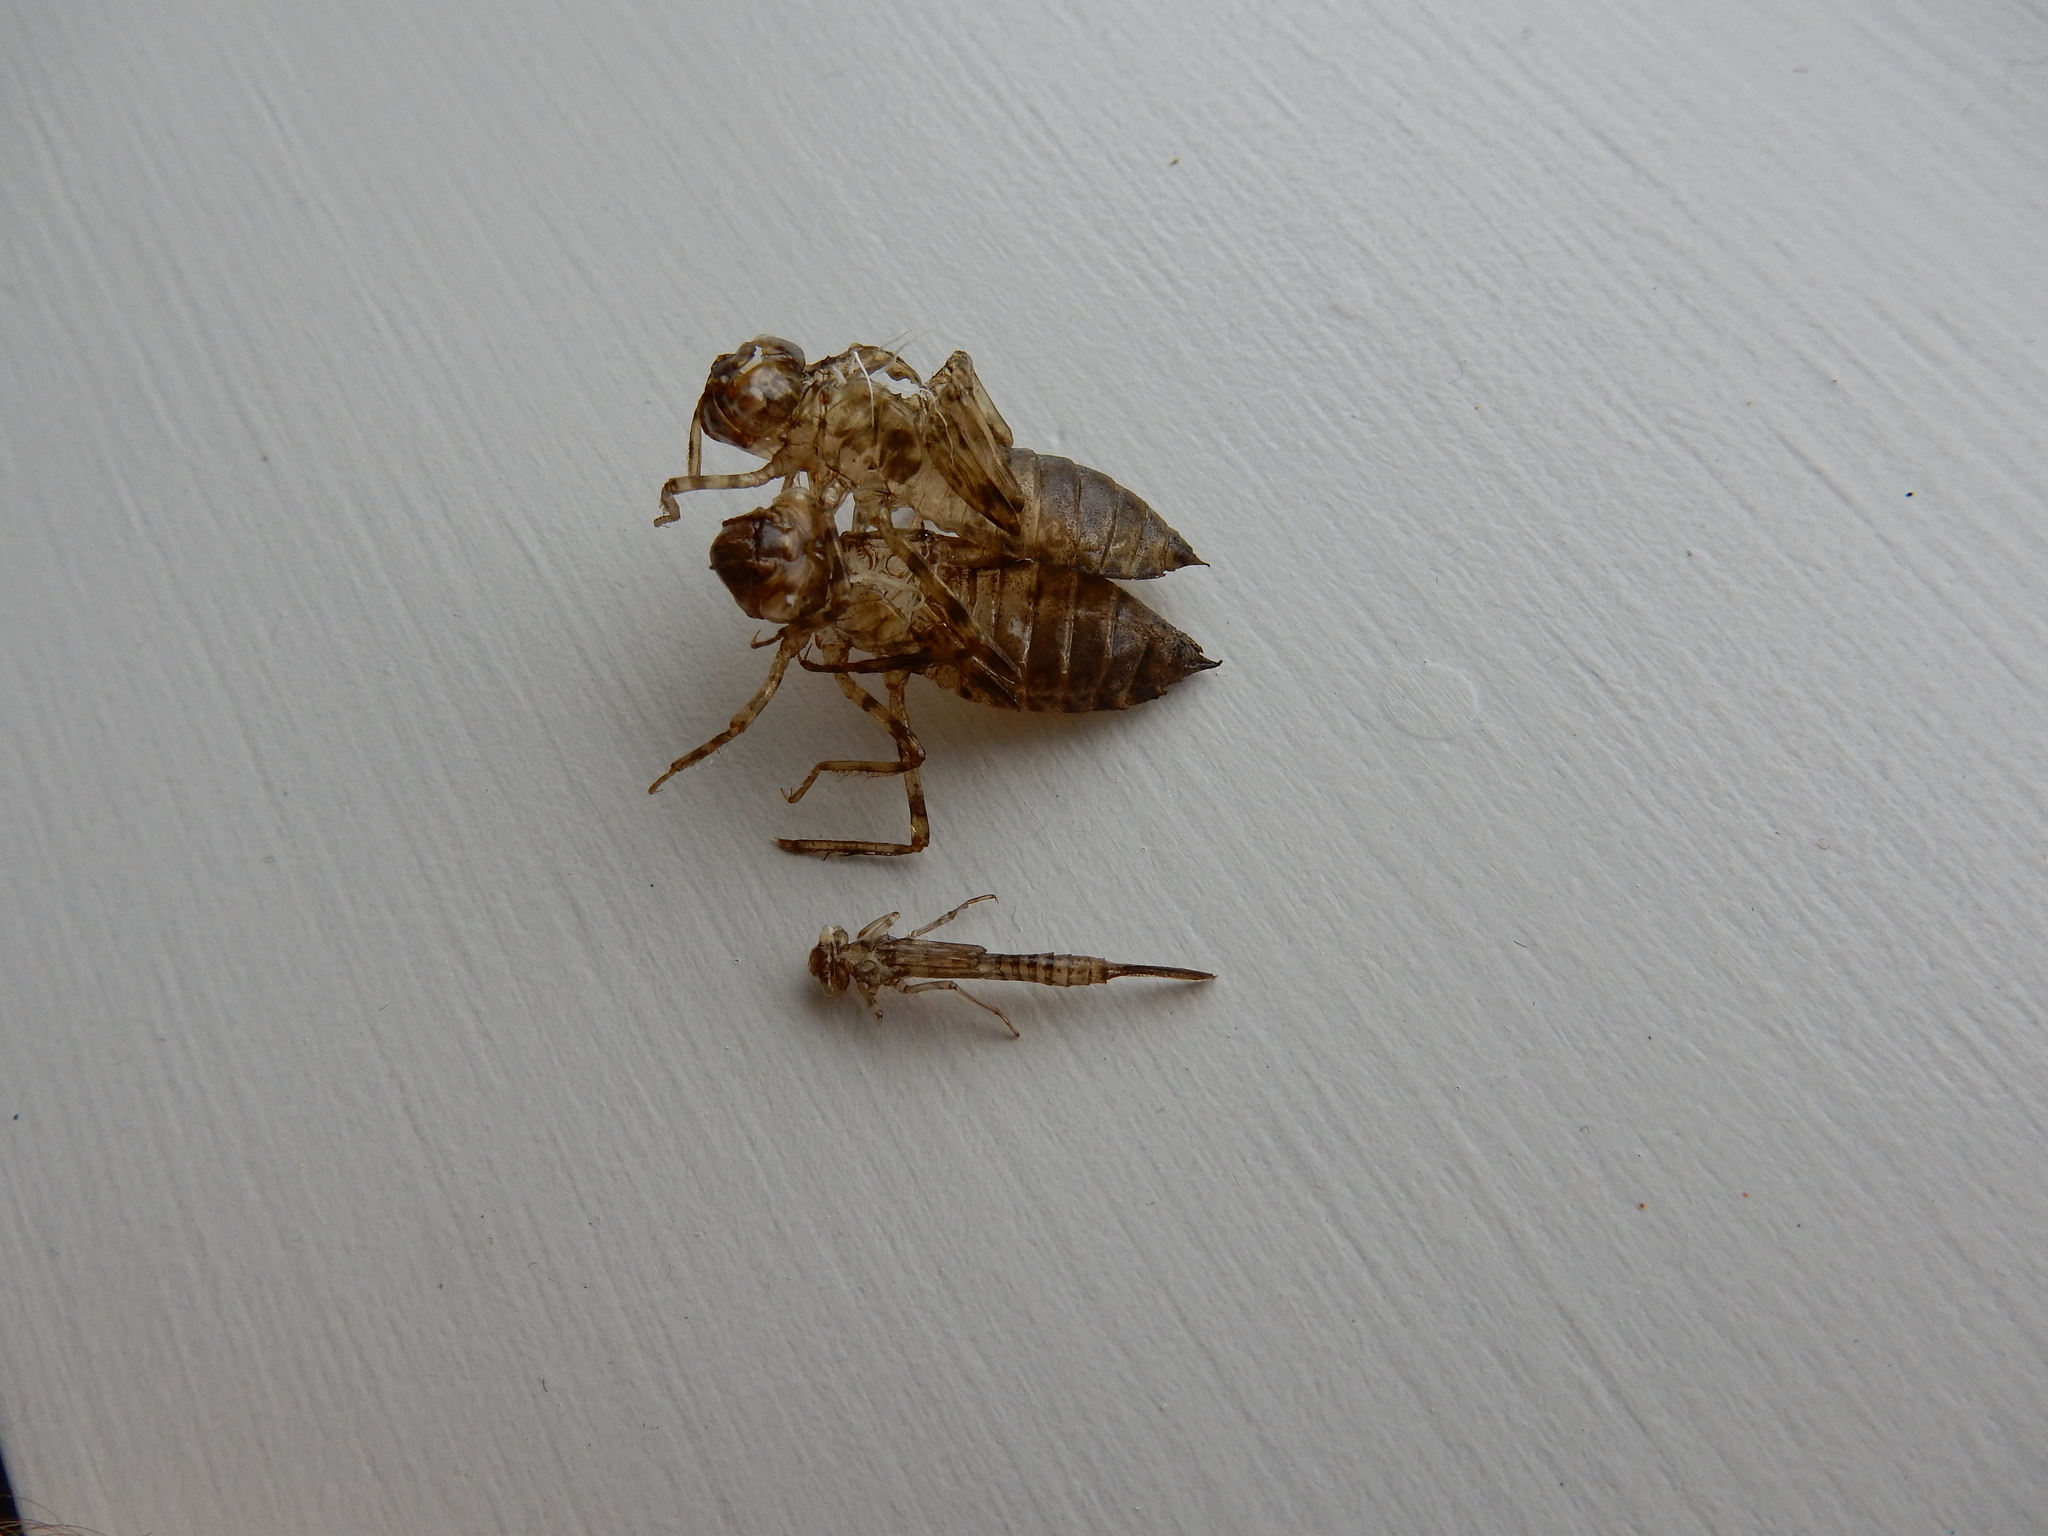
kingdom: Animalia
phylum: Arthropoda
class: Insecta
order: Odonata
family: Corduliidae
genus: Procordulia
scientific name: Procordulia grayi
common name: Yellow spotted dragonfly
